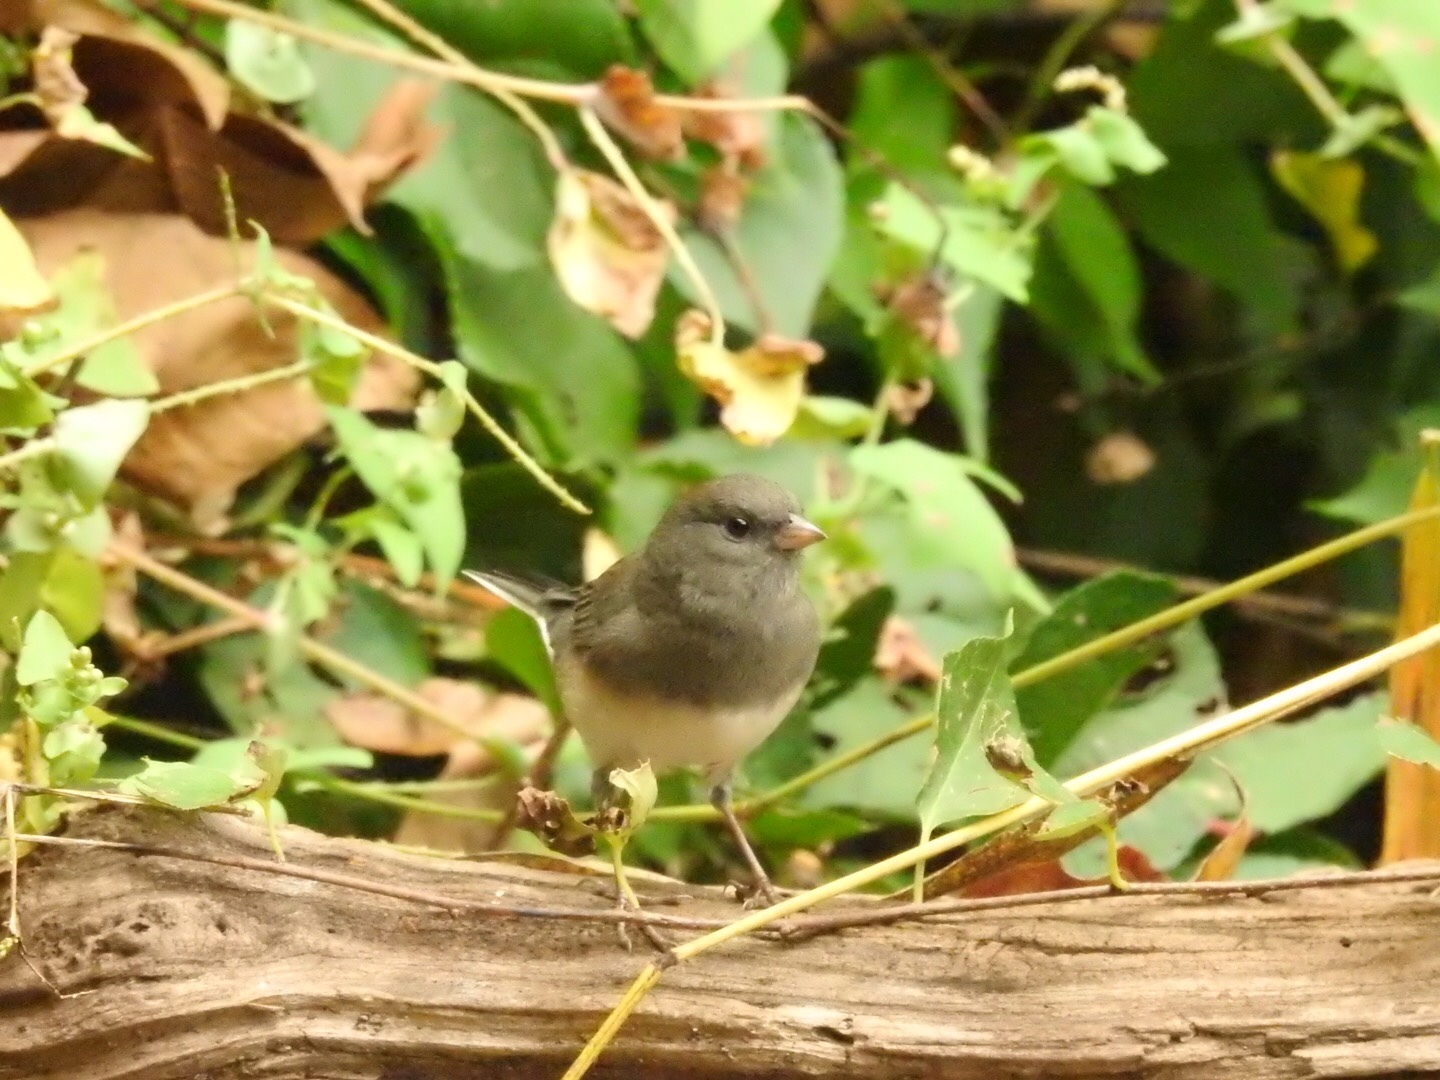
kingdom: Animalia
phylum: Chordata
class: Aves
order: Passeriformes
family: Passerellidae
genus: Junco
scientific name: Junco hyemalis
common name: Dark-eyed junco
